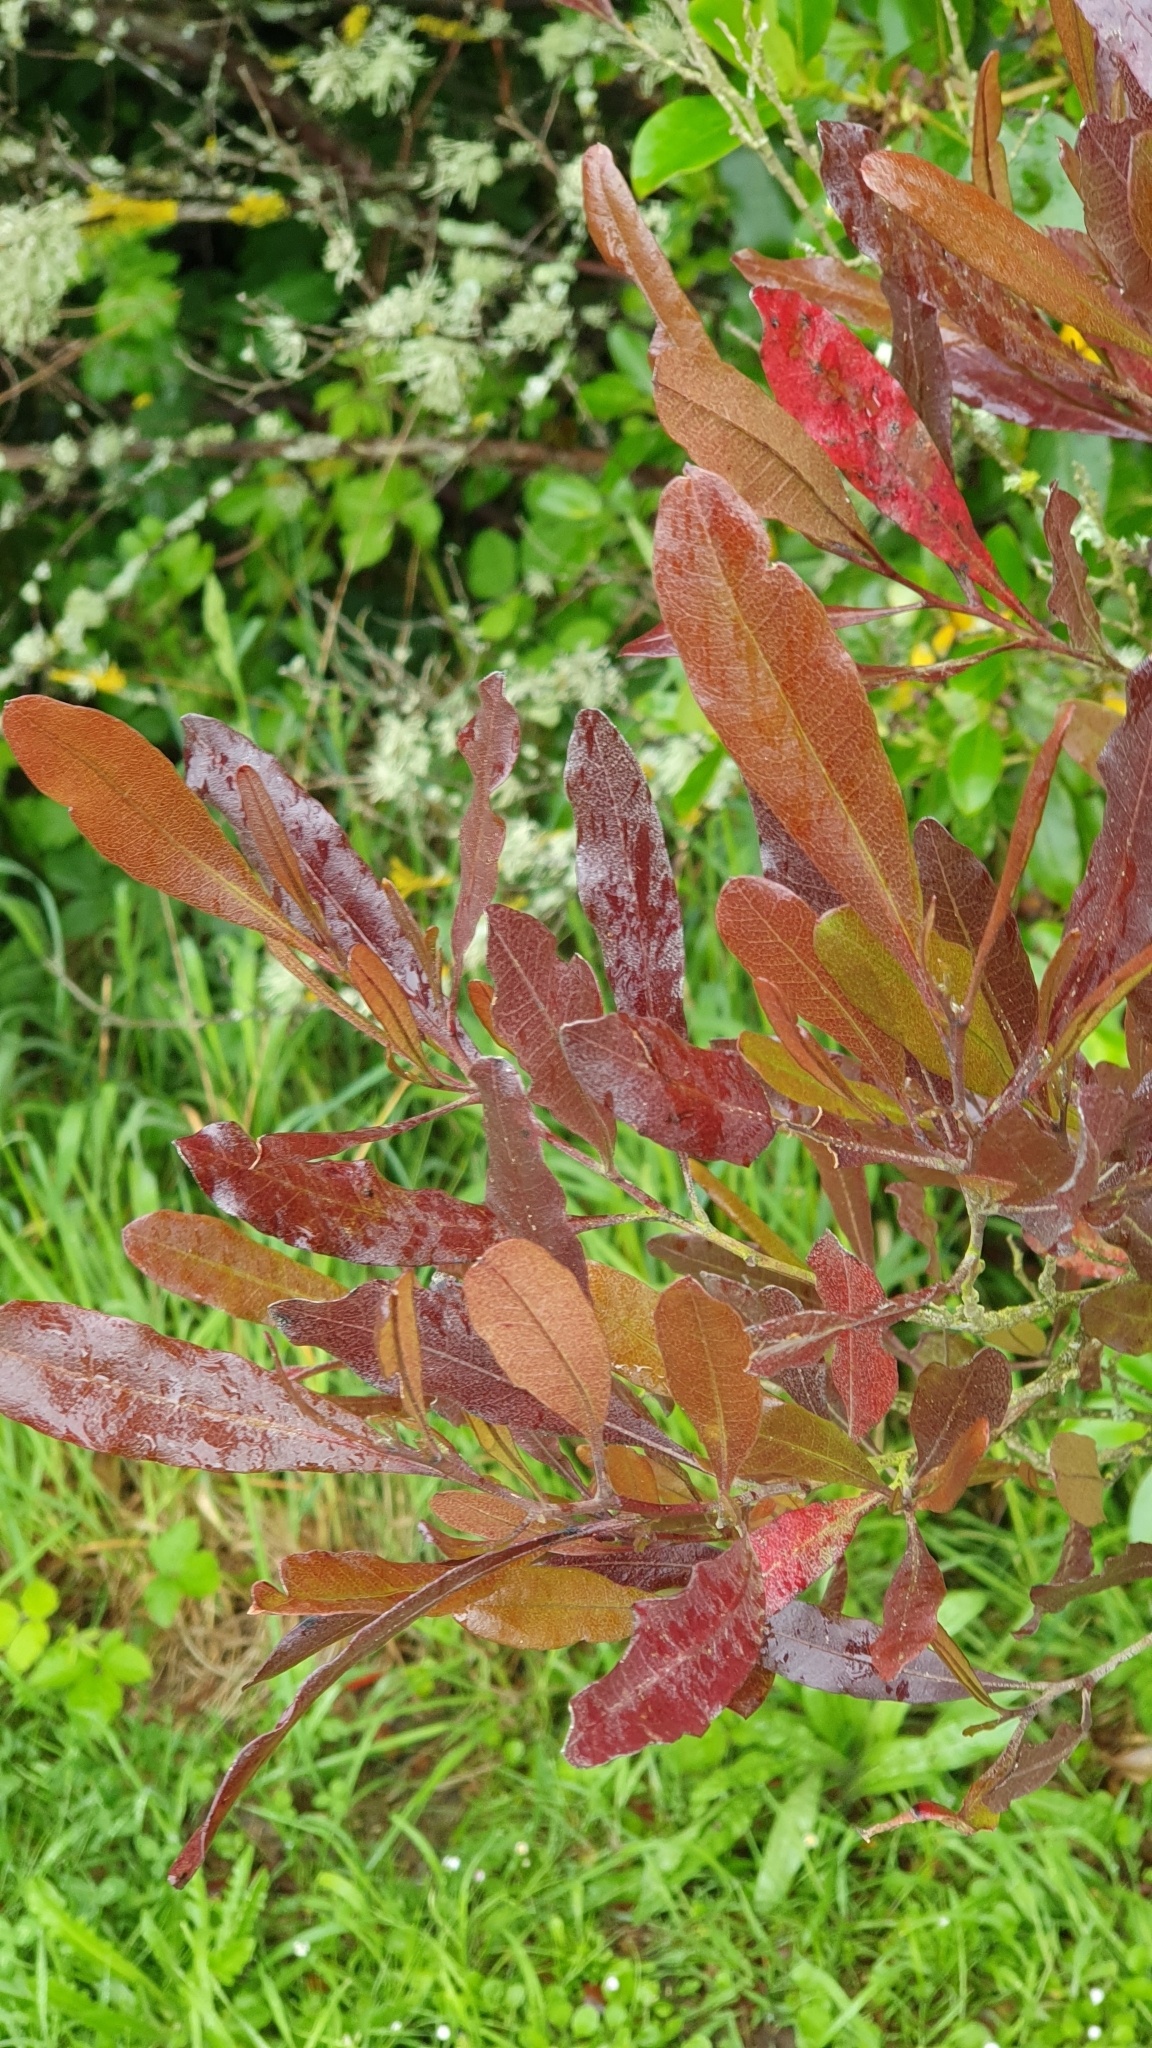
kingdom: Plantae
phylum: Tracheophyta
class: Magnoliopsida
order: Sapindales
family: Sapindaceae
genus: Dodonaea
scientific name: Dodonaea viscosa
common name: Hopbush
